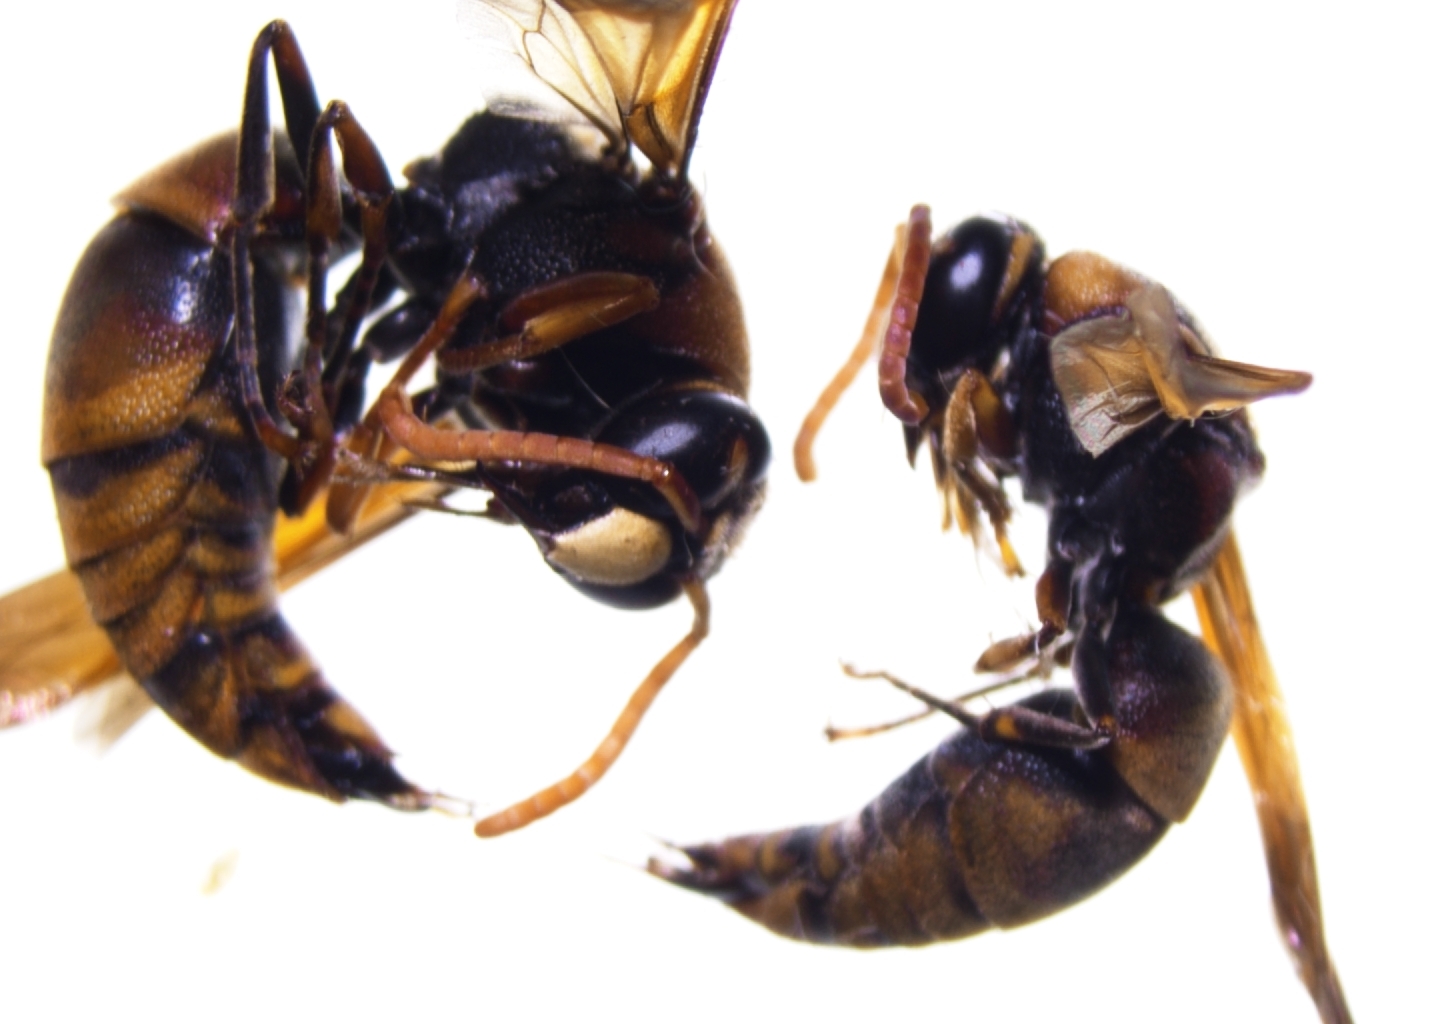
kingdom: Animalia
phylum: Arthropoda
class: Insecta
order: Hymenoptera
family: Eumenidae
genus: Rhynchium
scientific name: Rhynchium quinquecinctum
